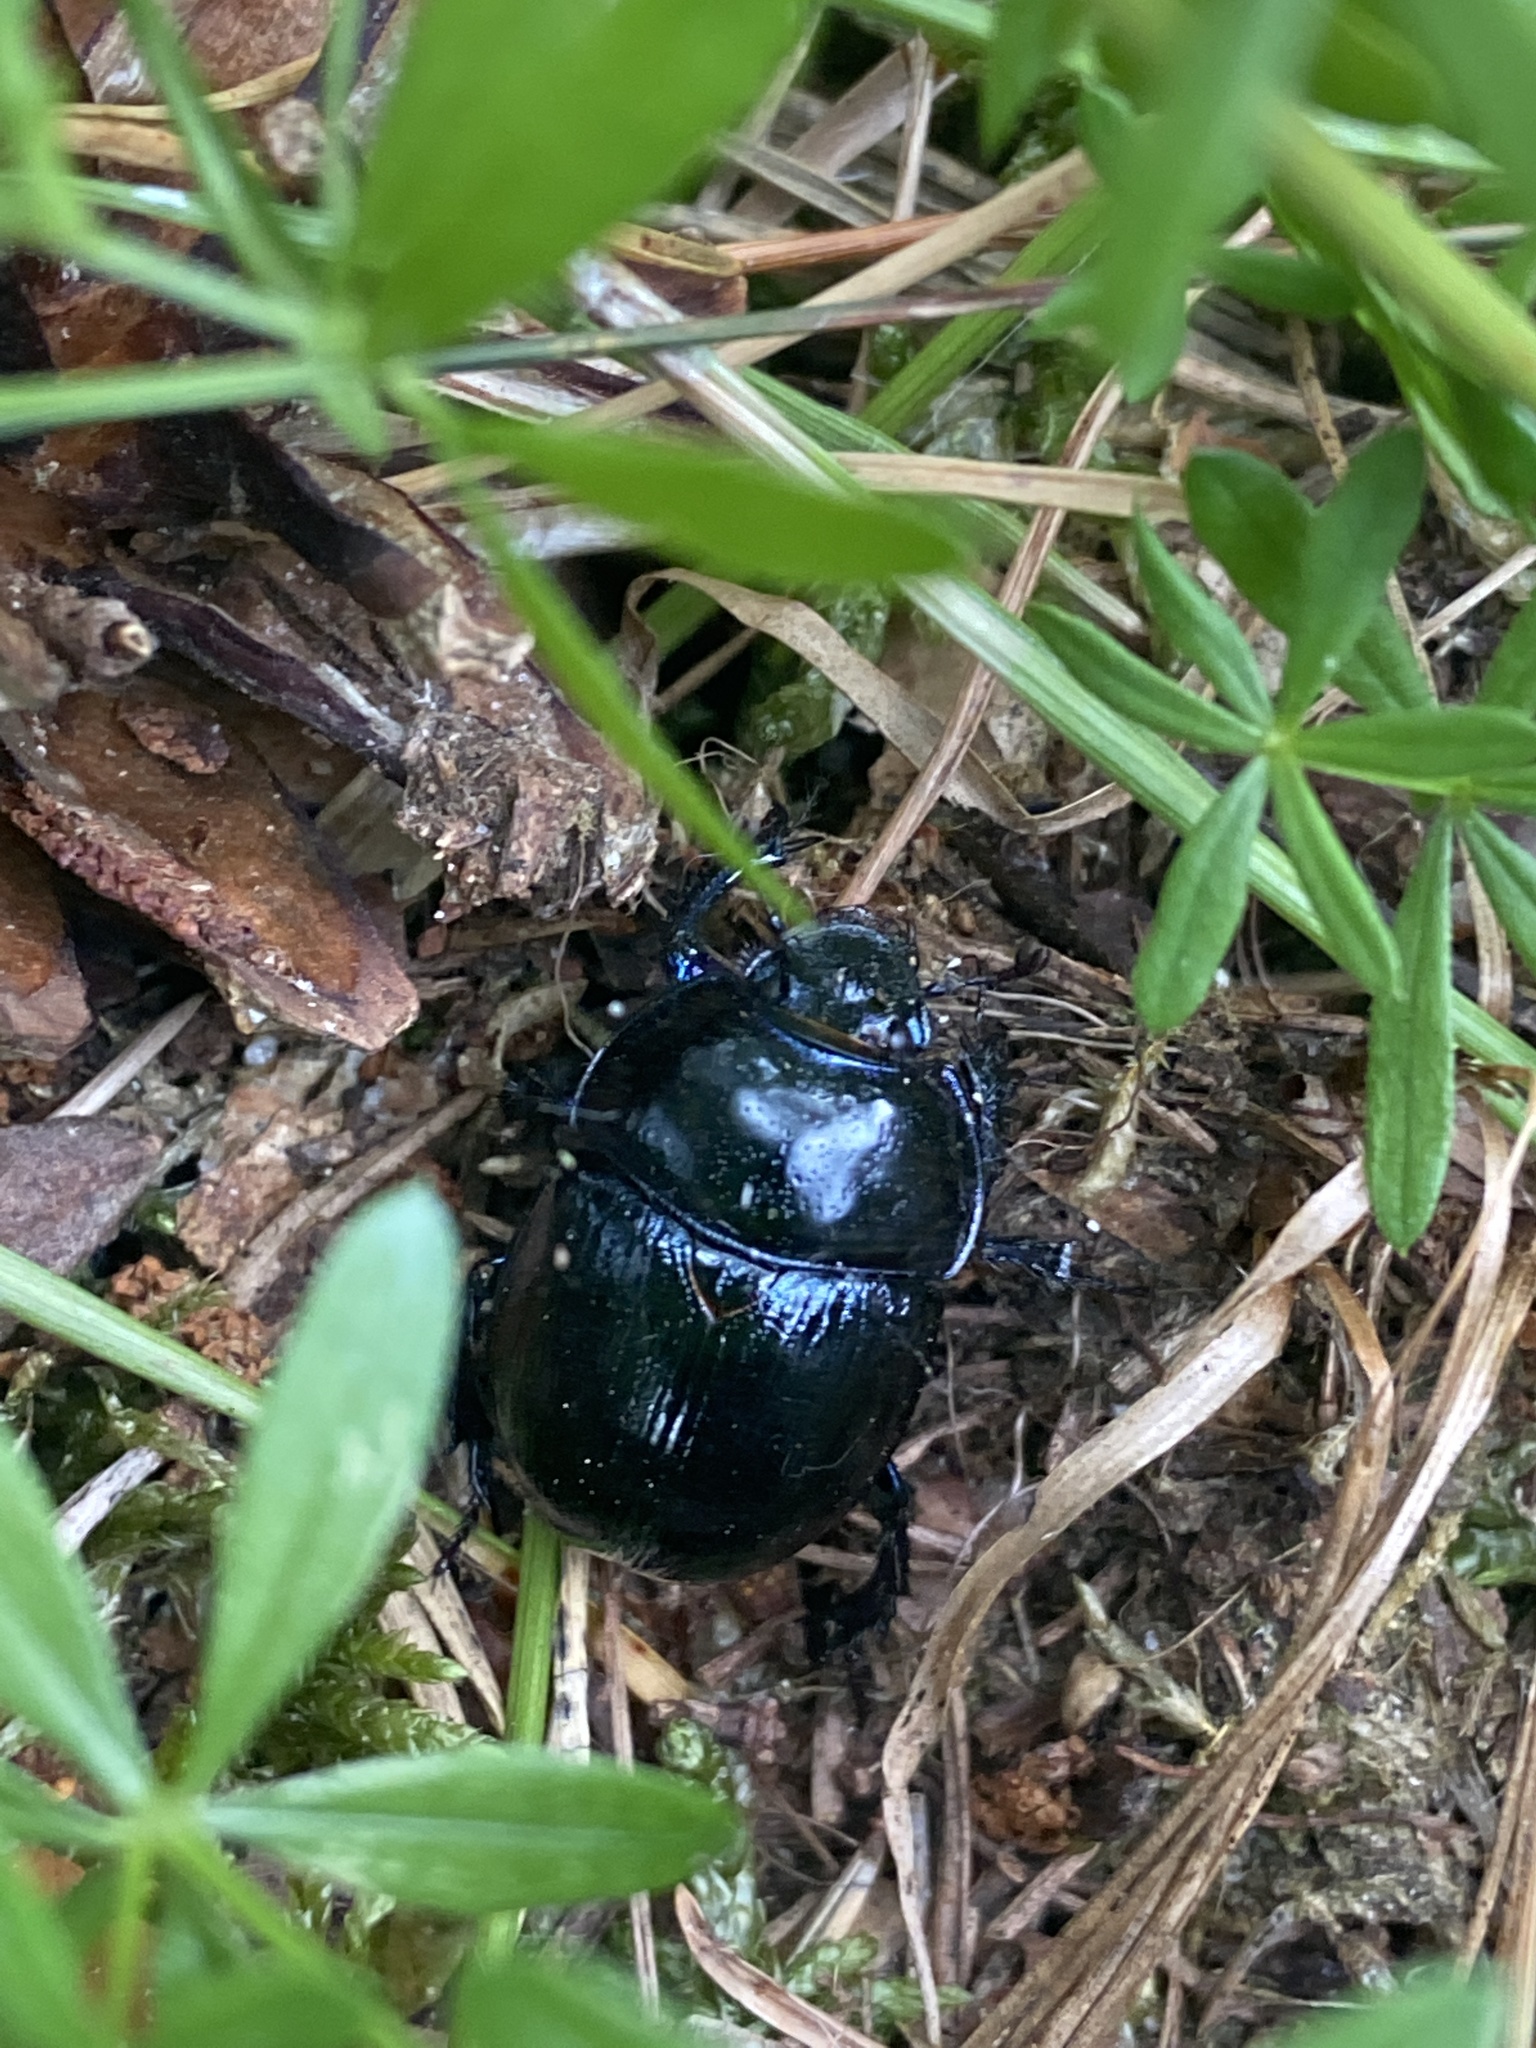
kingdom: Animalia
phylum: Arthropoda
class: Insecta
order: Coleoptera
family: Geotrupidae
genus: Anoplotrupes
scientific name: Anoplotrupes stercorosus
